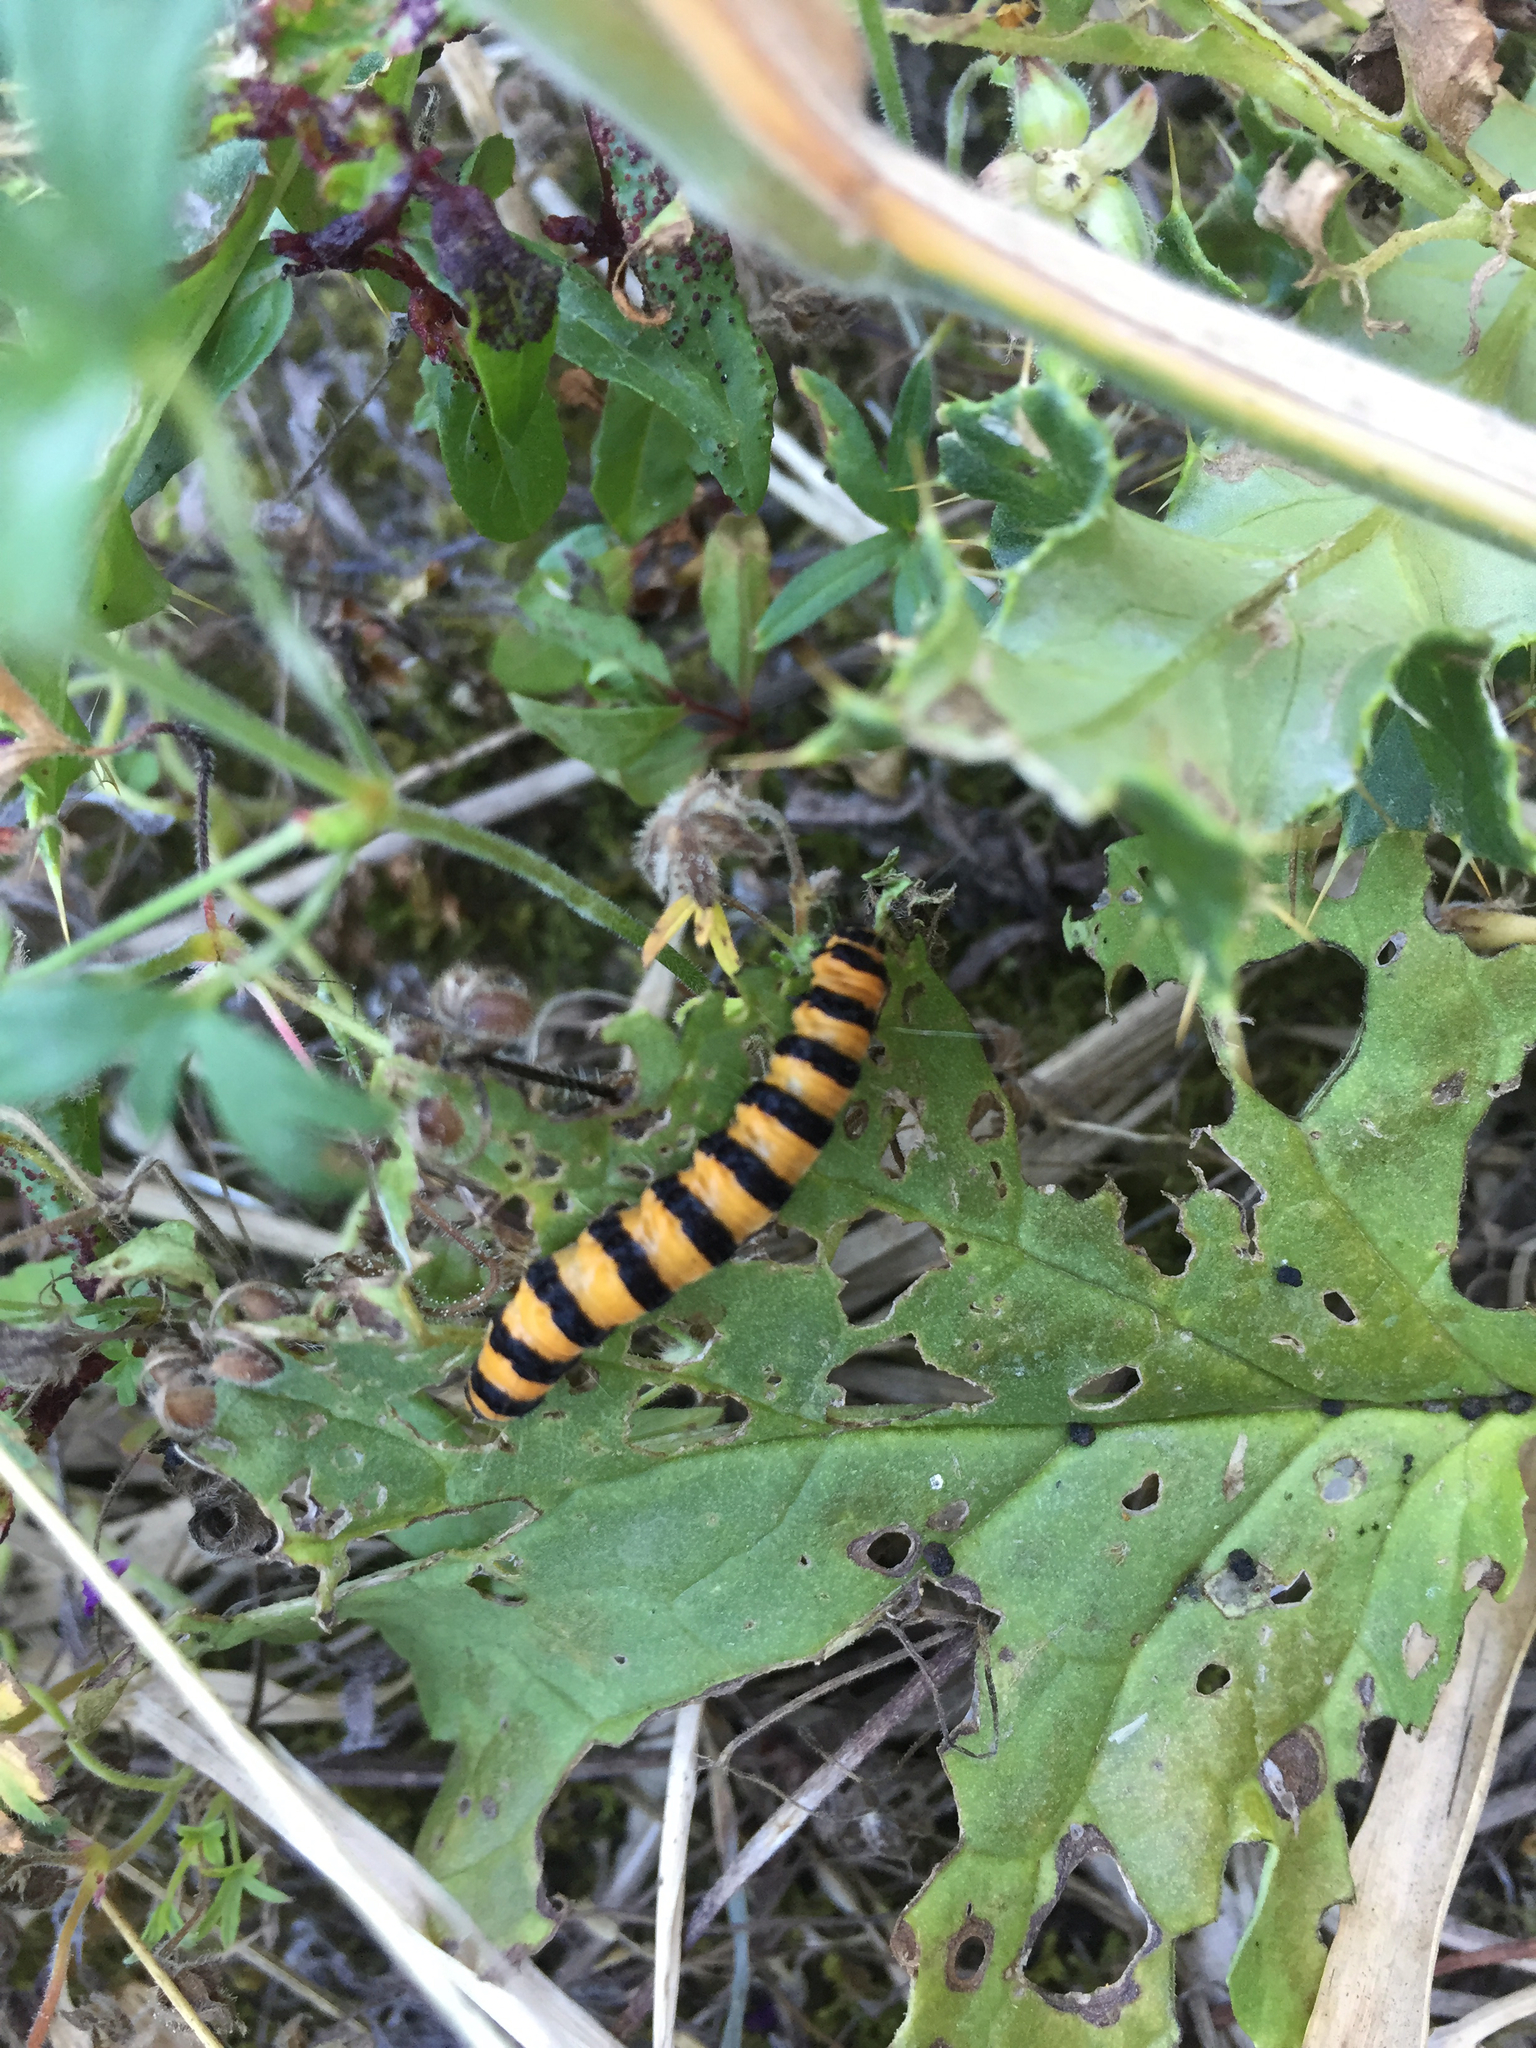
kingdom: Animalia
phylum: Arthropoda
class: Insecta
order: Lepidoptera
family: Erebidae
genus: Tyria
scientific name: Tyria jacobaeae
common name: Cinnabar
